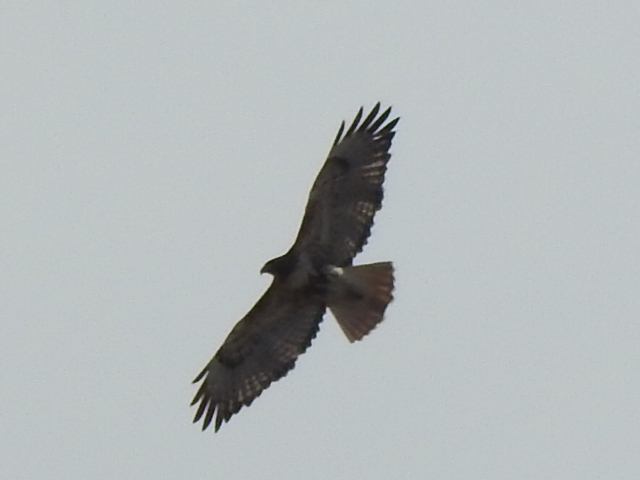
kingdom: Animalia
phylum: Chordata
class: Aves
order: Accipitriformes
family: Accipitridae
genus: Buteo
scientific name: Buteo jamaicensis
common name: Red-tailed hawk
